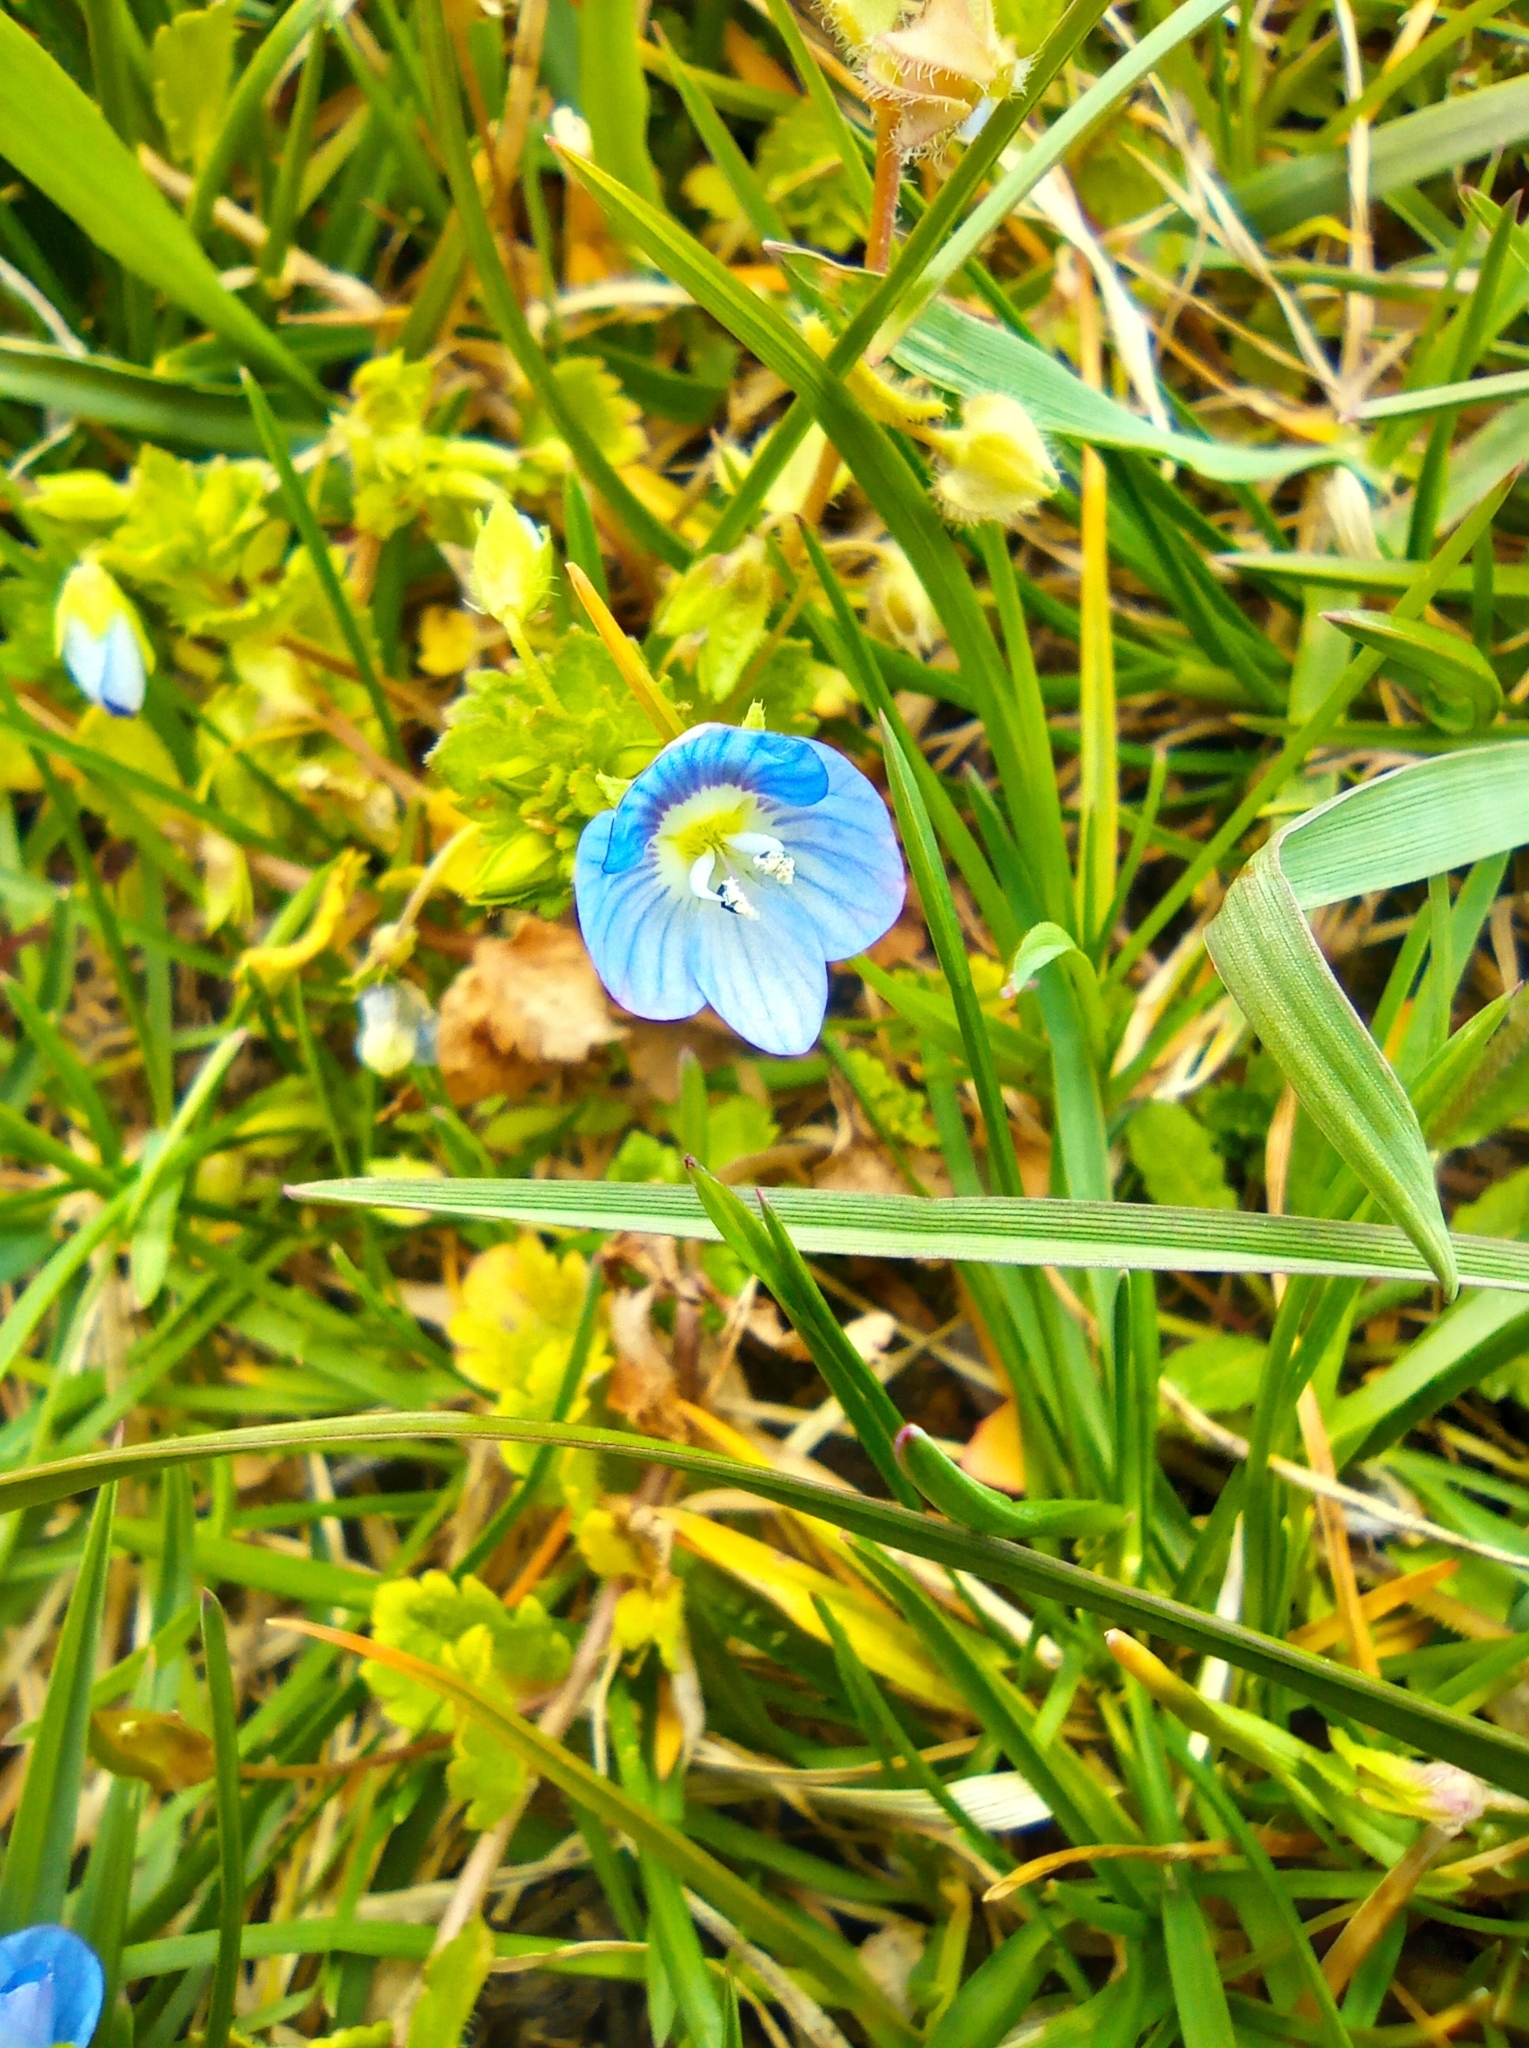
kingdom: Plantae
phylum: Tracheophyta
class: Magnoliopsida
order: Lamiales
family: Plantaginaceae
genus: Veronica
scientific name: Veronica persica
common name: Common field-speedwell
